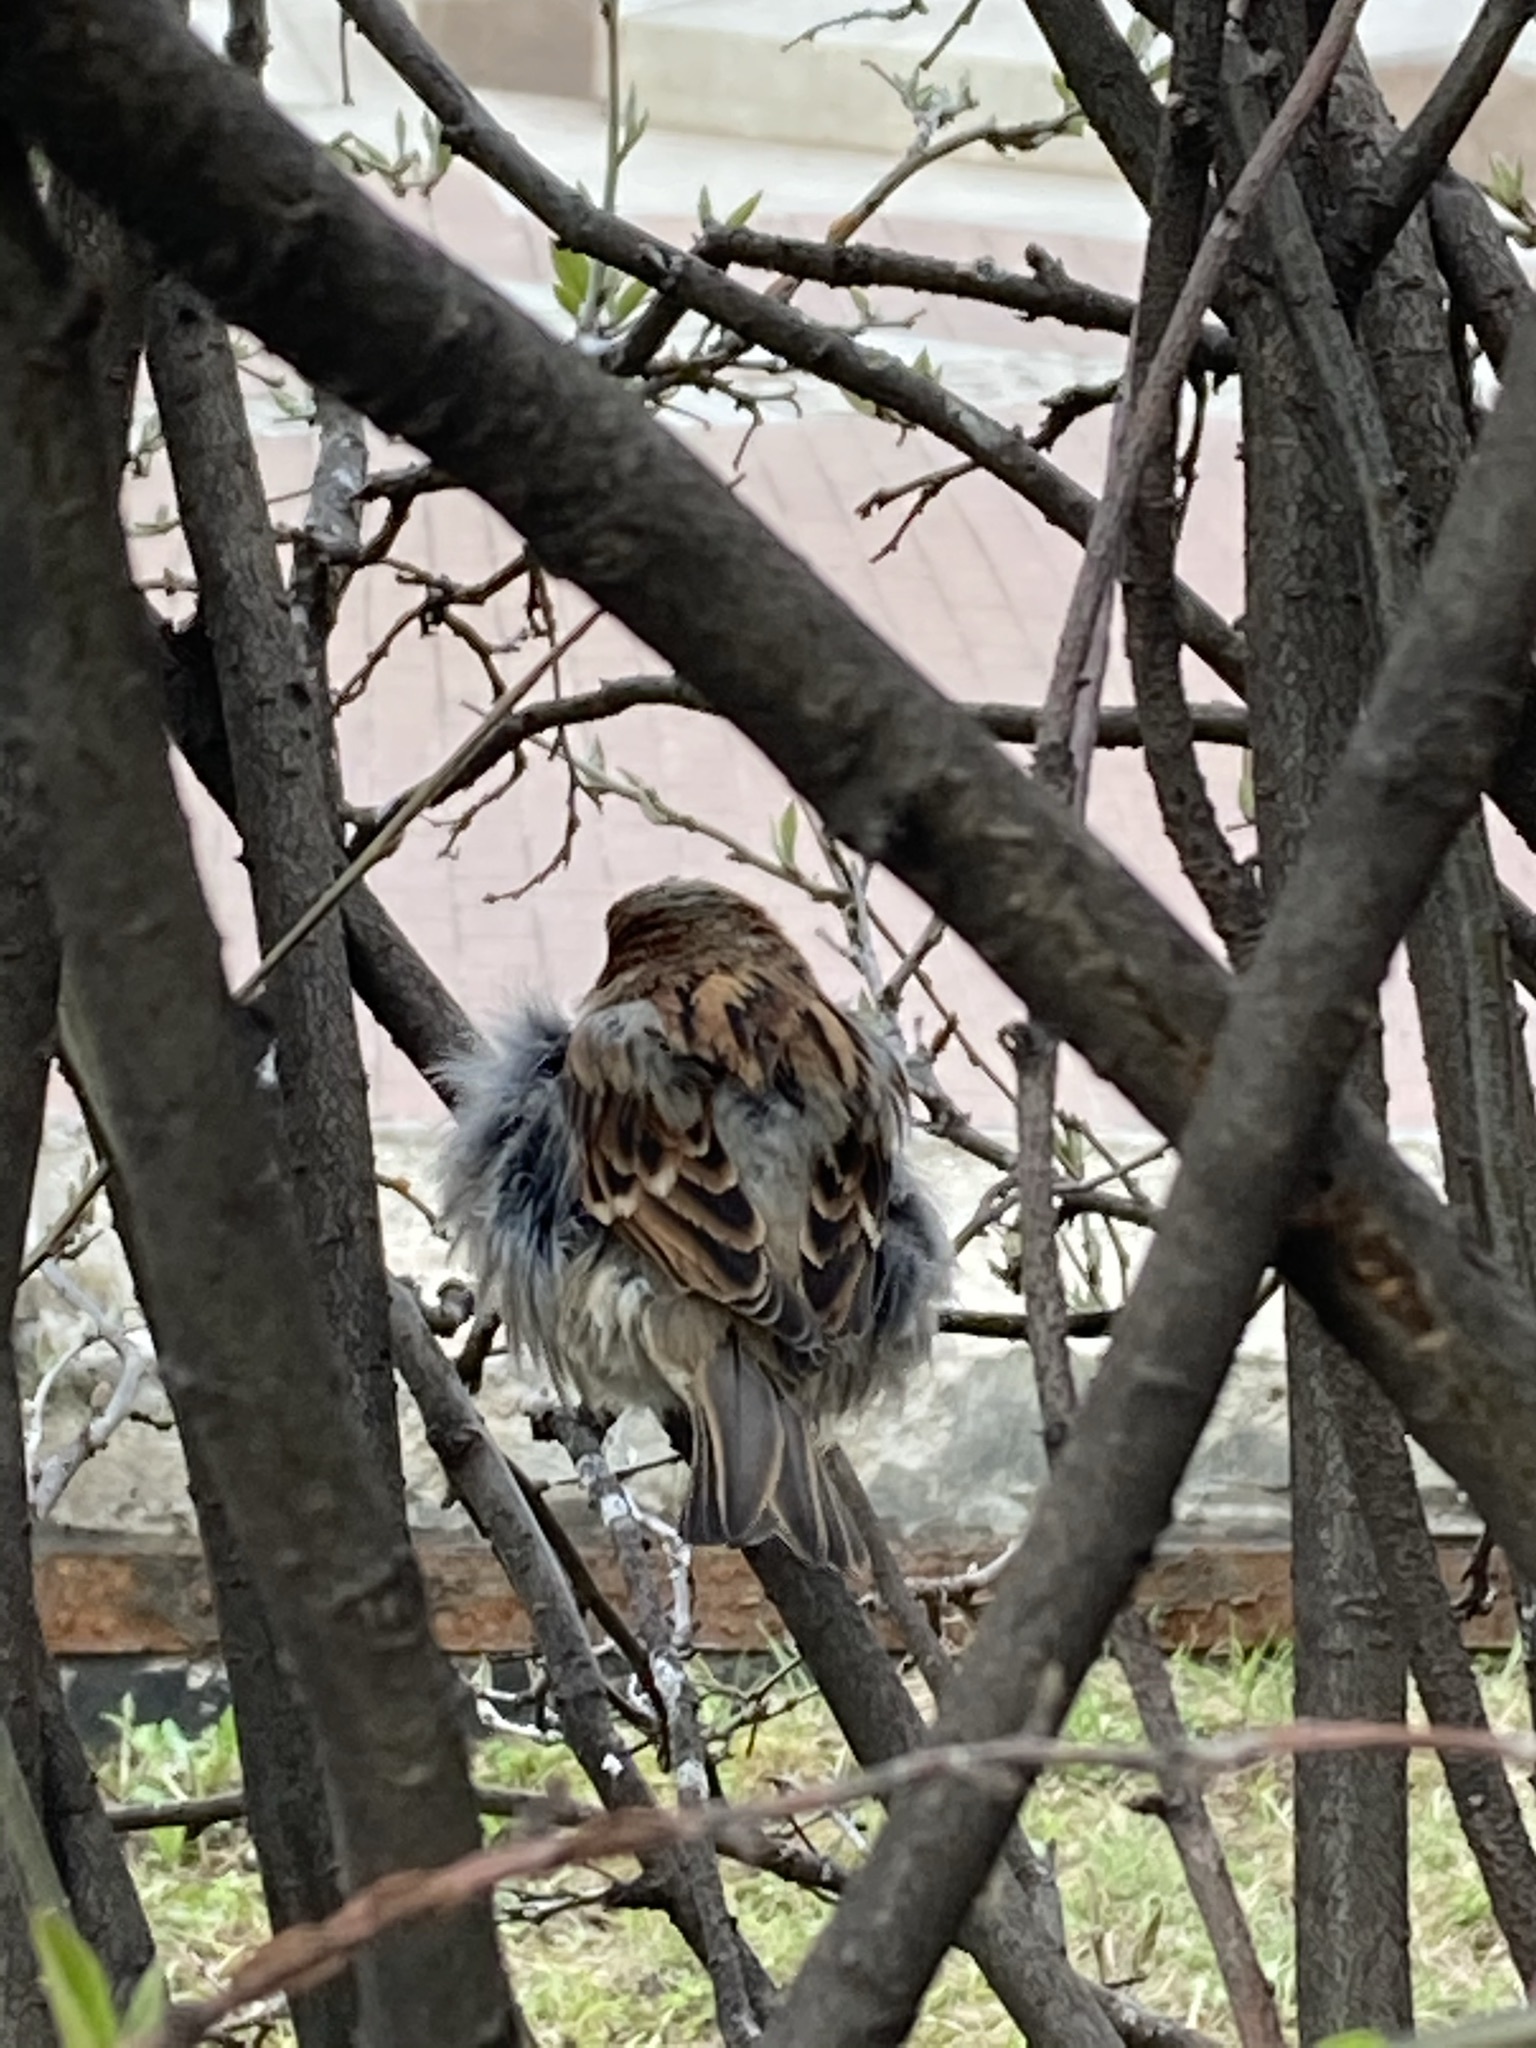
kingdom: Animalia
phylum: Chordata
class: Aves
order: Passeriformes
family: Passeridae
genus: Passer
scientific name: Passer domesticus
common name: House sparrow
